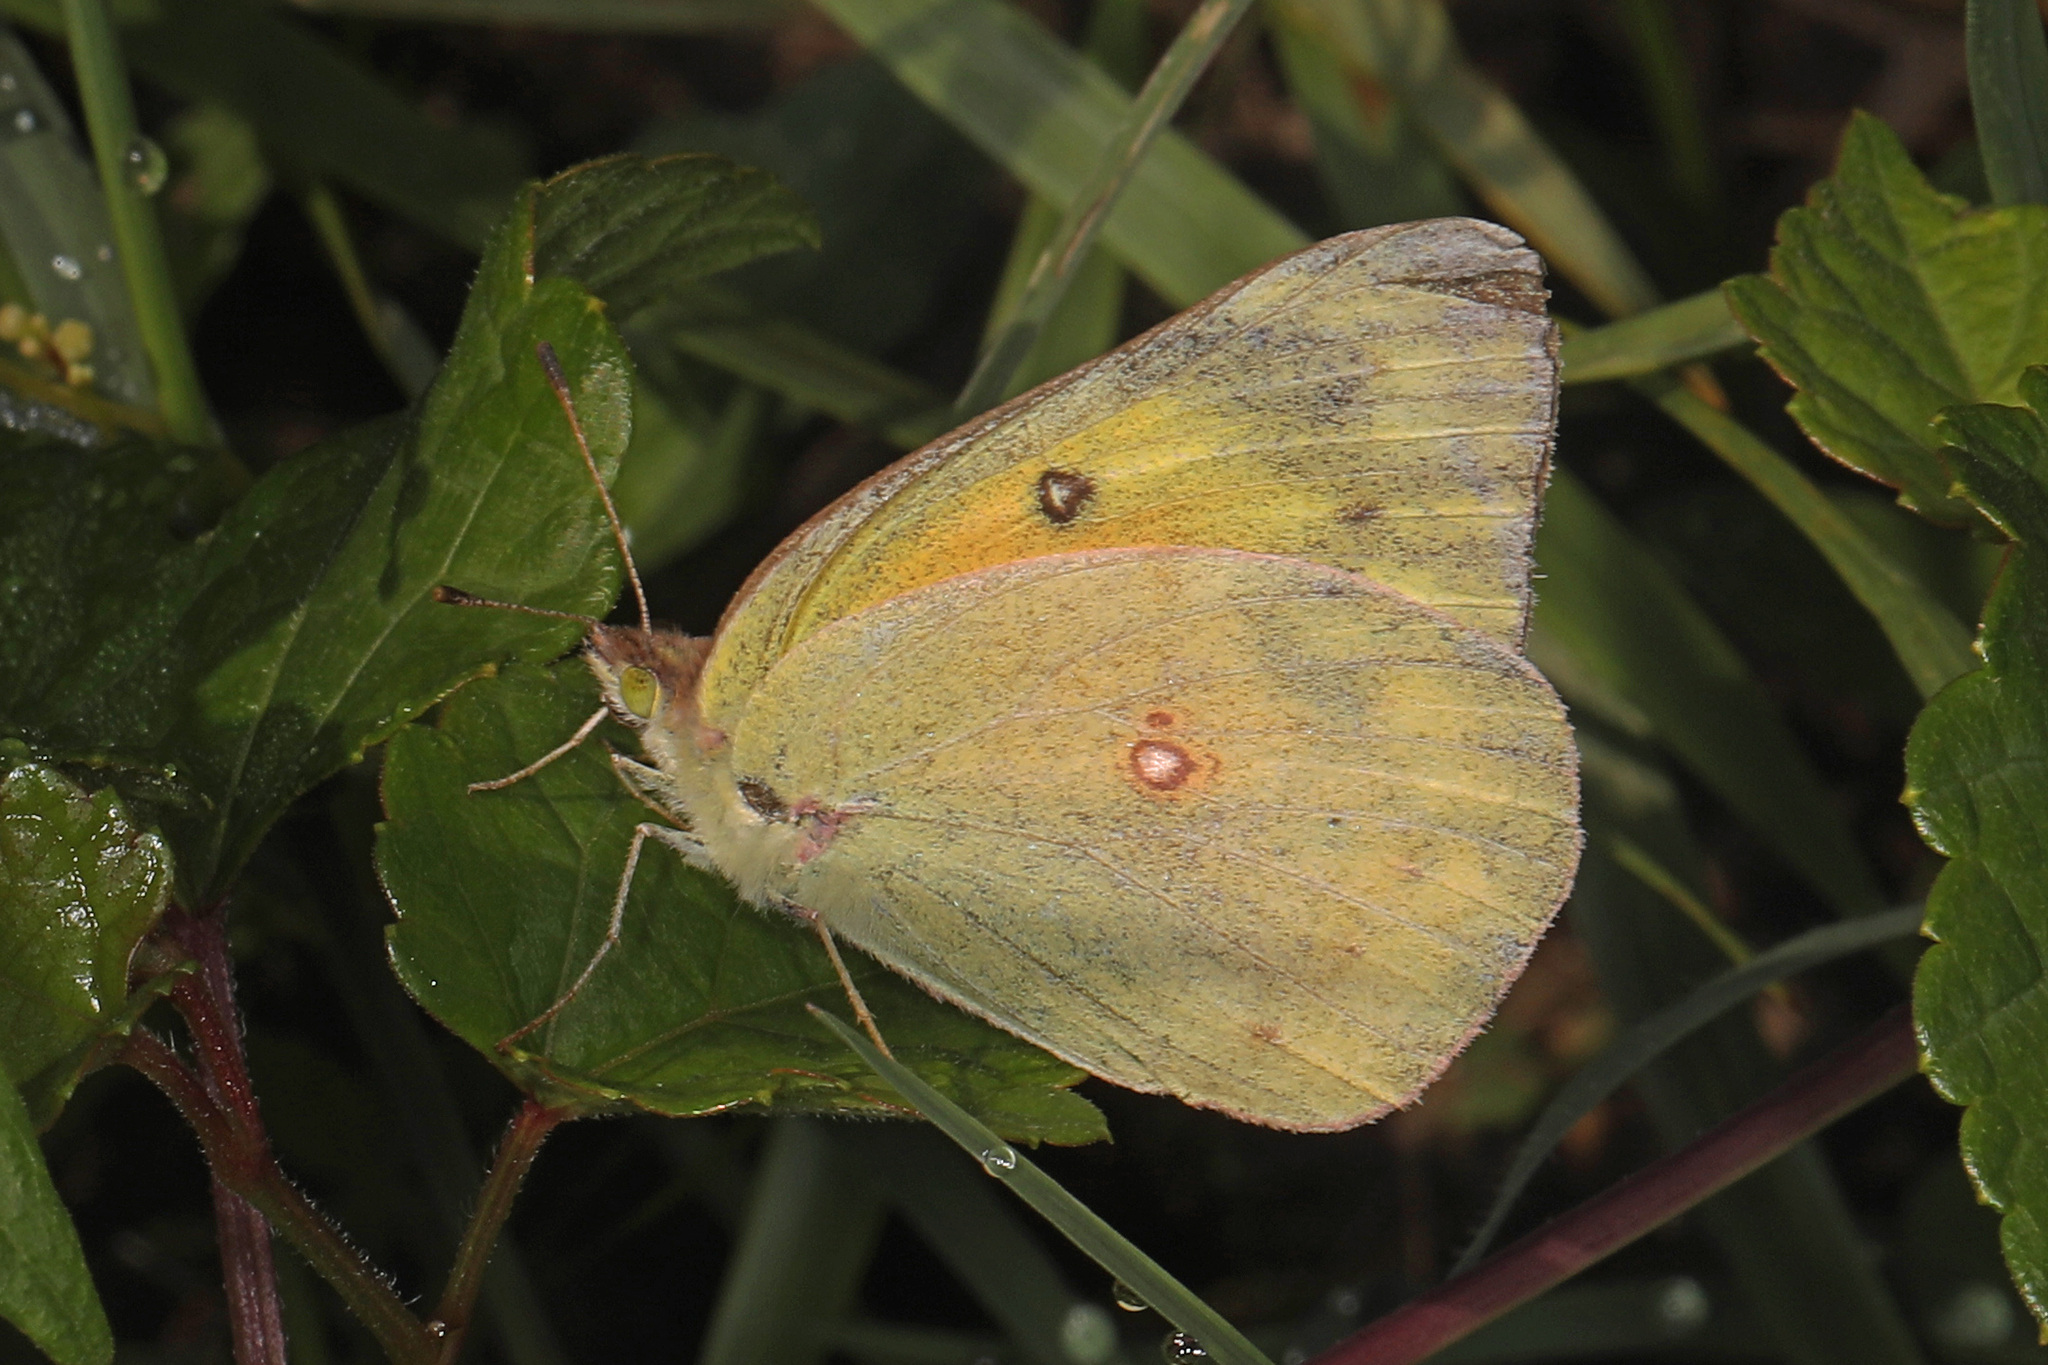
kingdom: Animalia
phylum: Arthropoda
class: Insecta
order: Lepidoptera
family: Pieridae
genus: Colias
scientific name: Colias eurytheme
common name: Alfalfa butterfly
